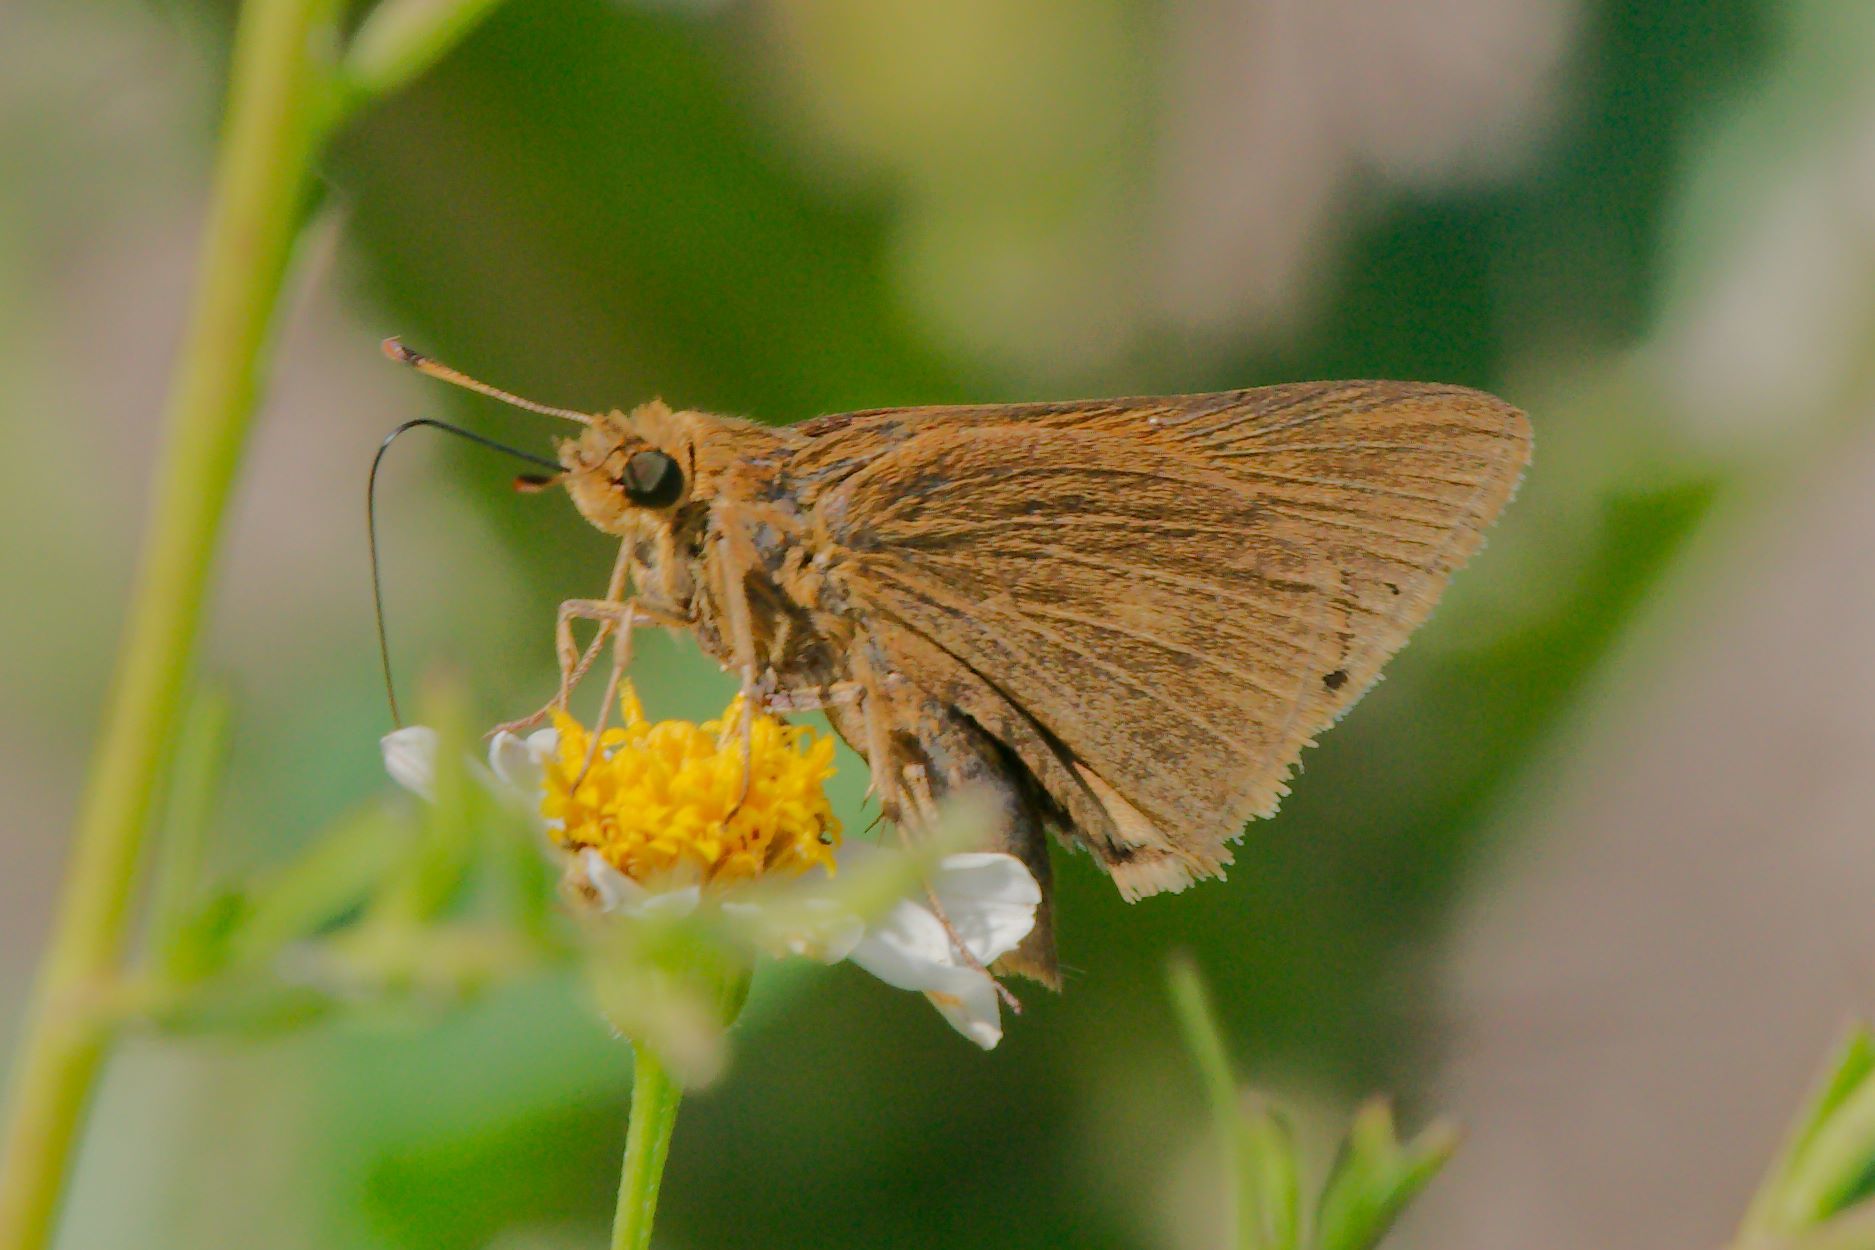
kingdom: Animalia
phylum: Arthropoda
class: Insecta
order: Lepidoptera
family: Hesperiidae
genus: Euphyes
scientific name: Euphyes pilatka
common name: Palatka skipper
